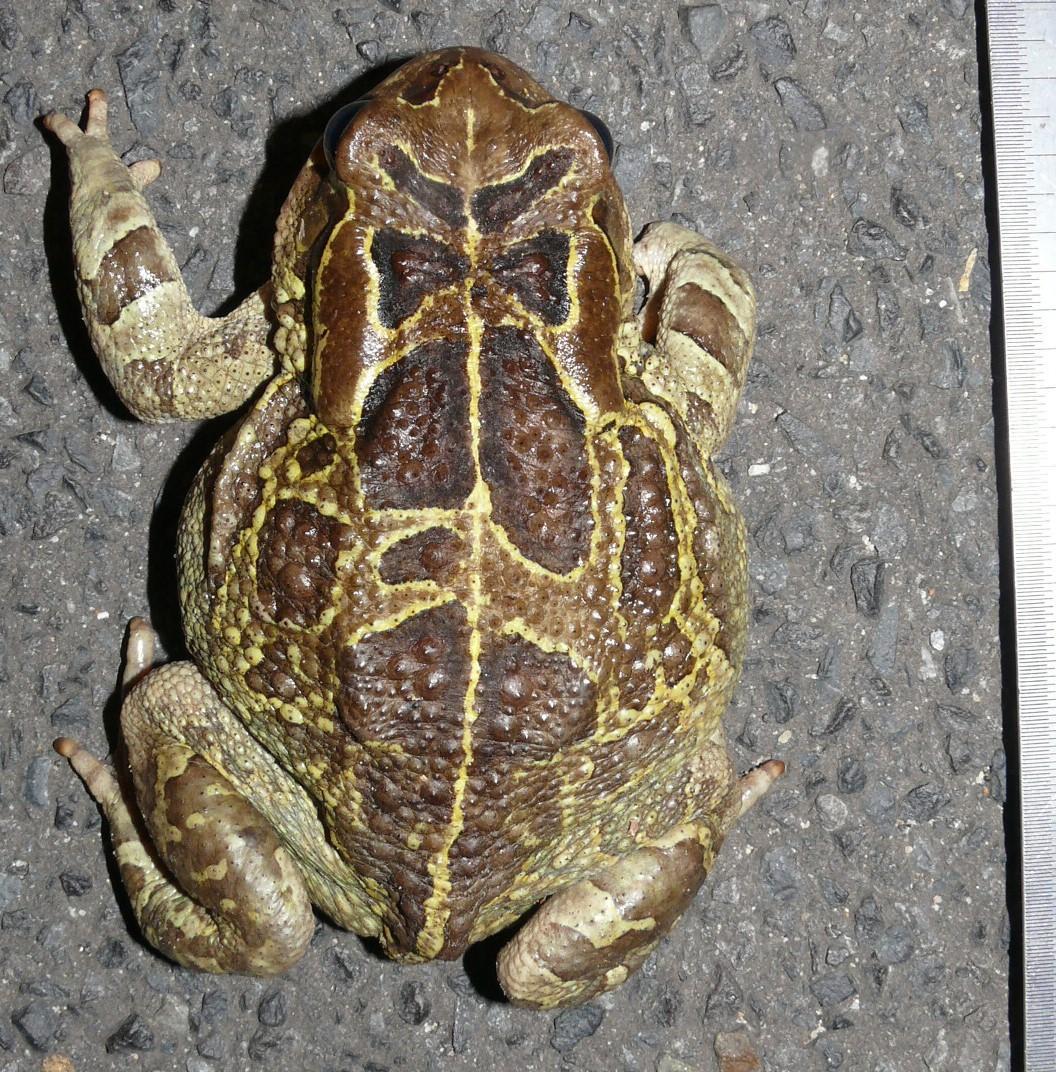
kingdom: Animalia
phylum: Chordata
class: Amphibia
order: Anura
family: Bufonidae
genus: Sclerophrys
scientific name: Sclerophrys pantherina
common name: Panther toad
